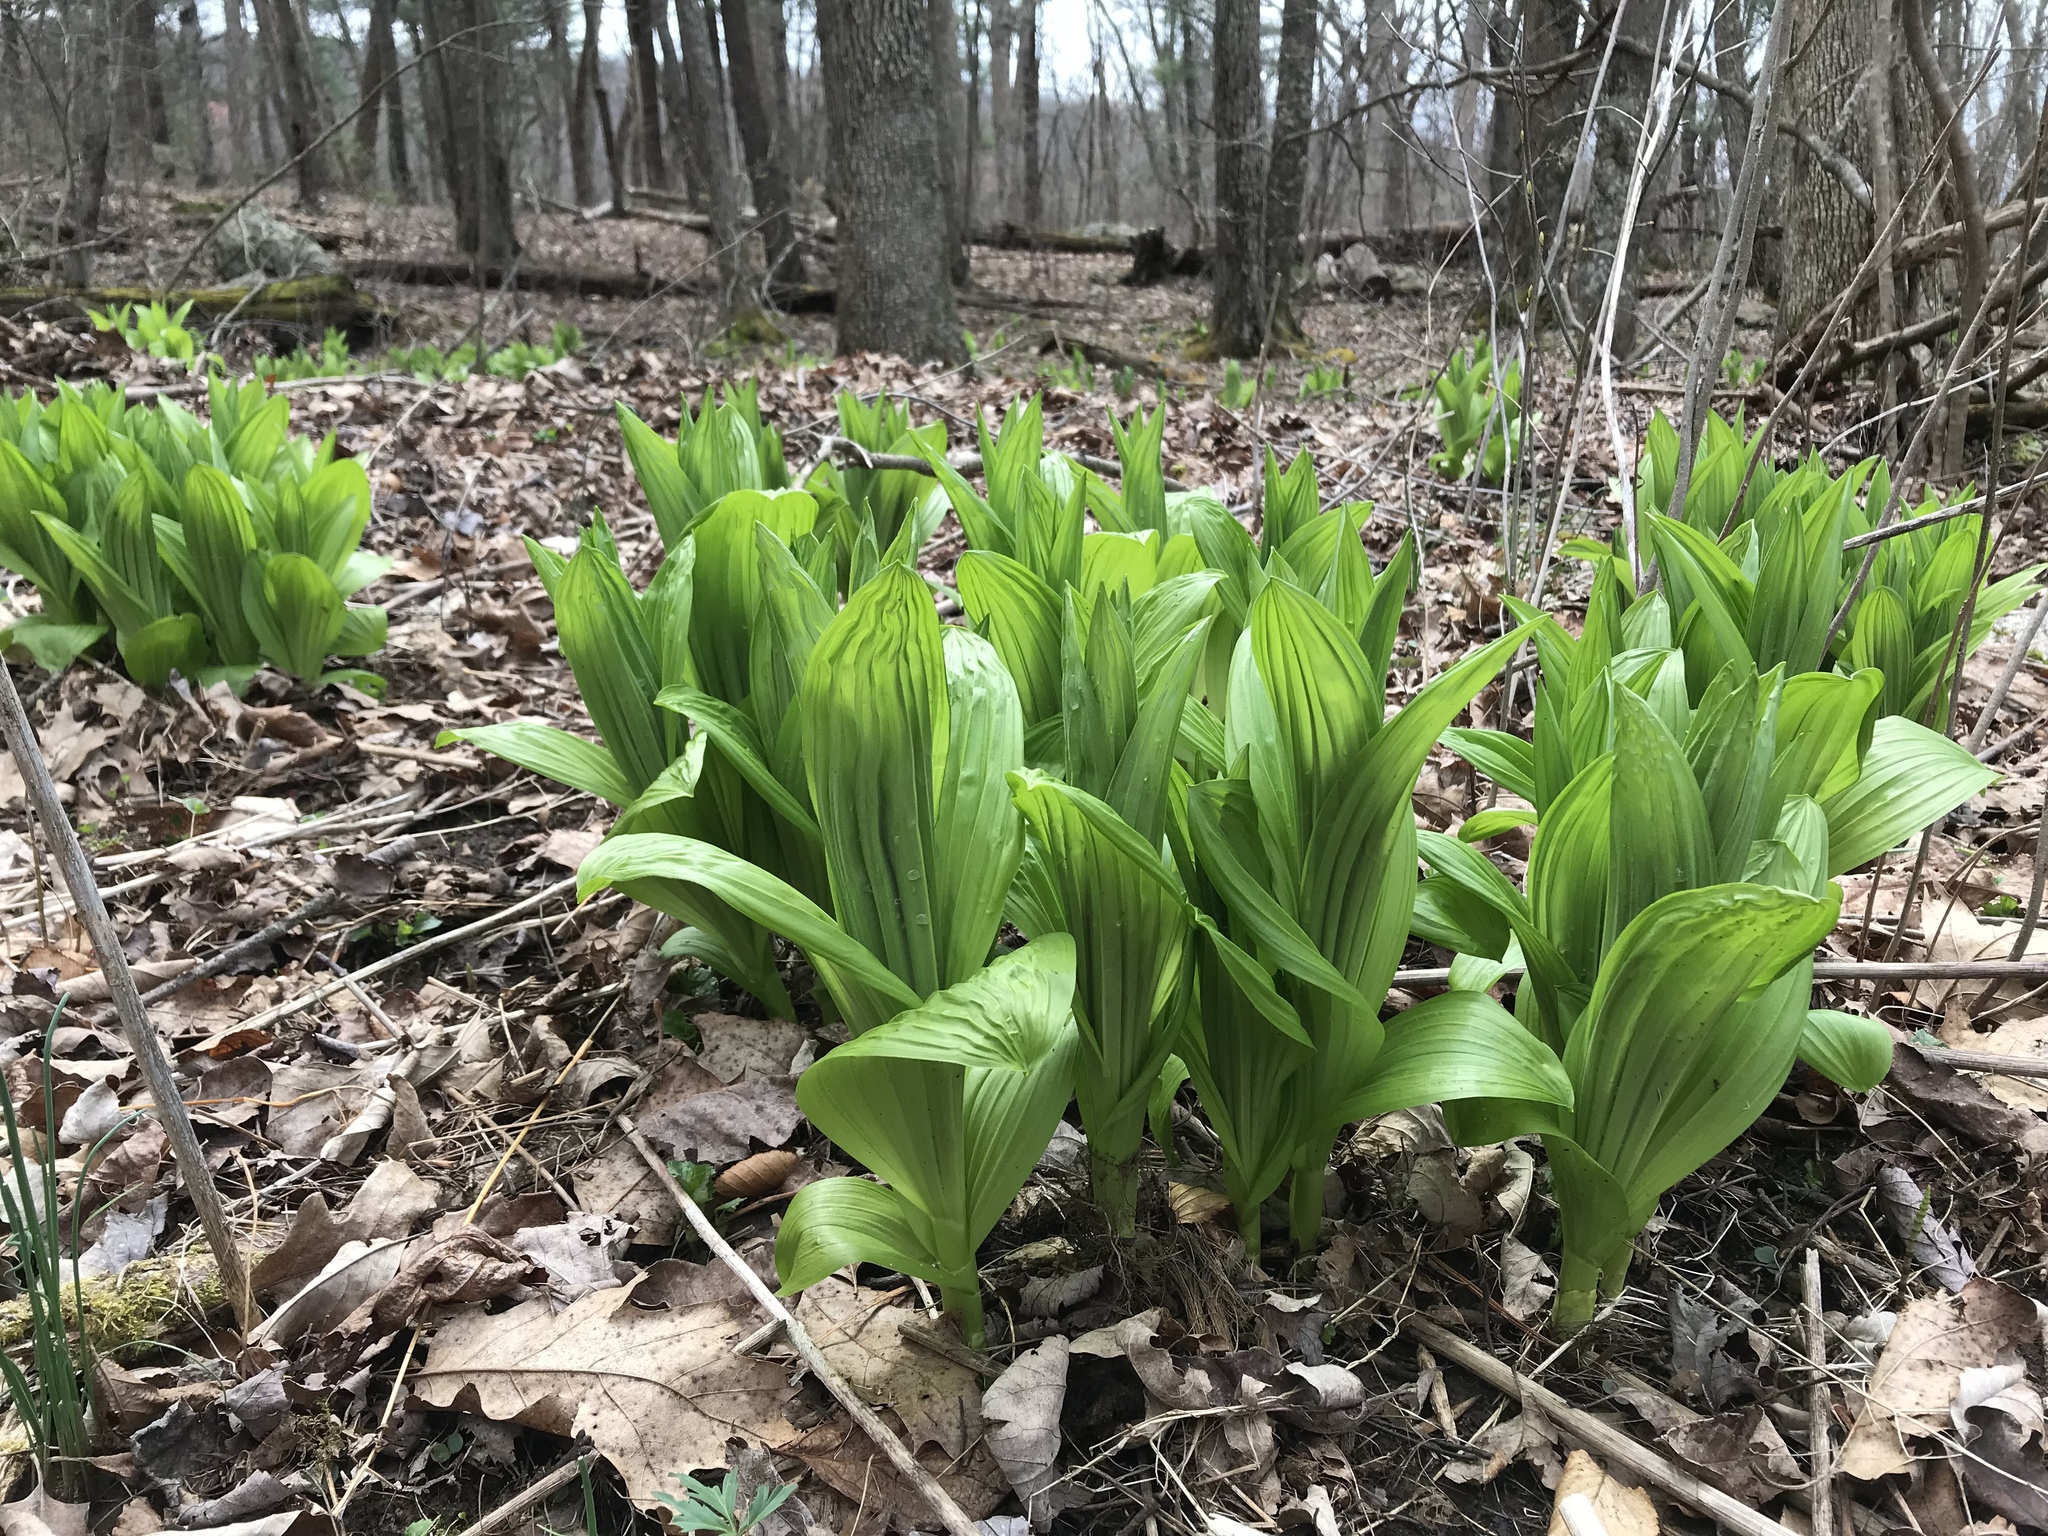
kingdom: Plantae
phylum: Tracheophyta
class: Liliopsida
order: Liliales
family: Melanthiaceae
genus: Veratrum
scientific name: Veratrum viride
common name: American false hellebore
